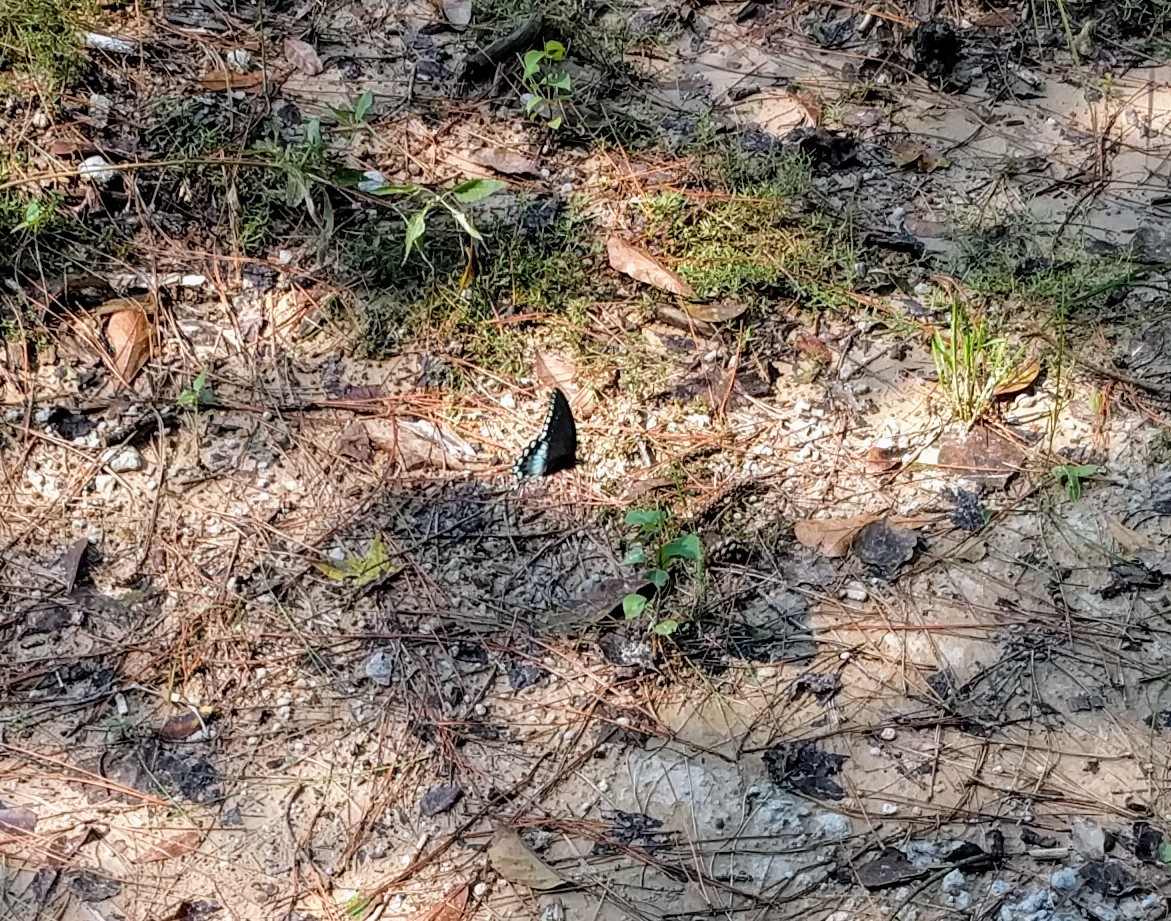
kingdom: Animalia
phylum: Arthropoda
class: Insecta
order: Lepidoptera
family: Papilionidae
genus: Papilio
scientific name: Papilio troilus
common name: Spicebush swallowtail
